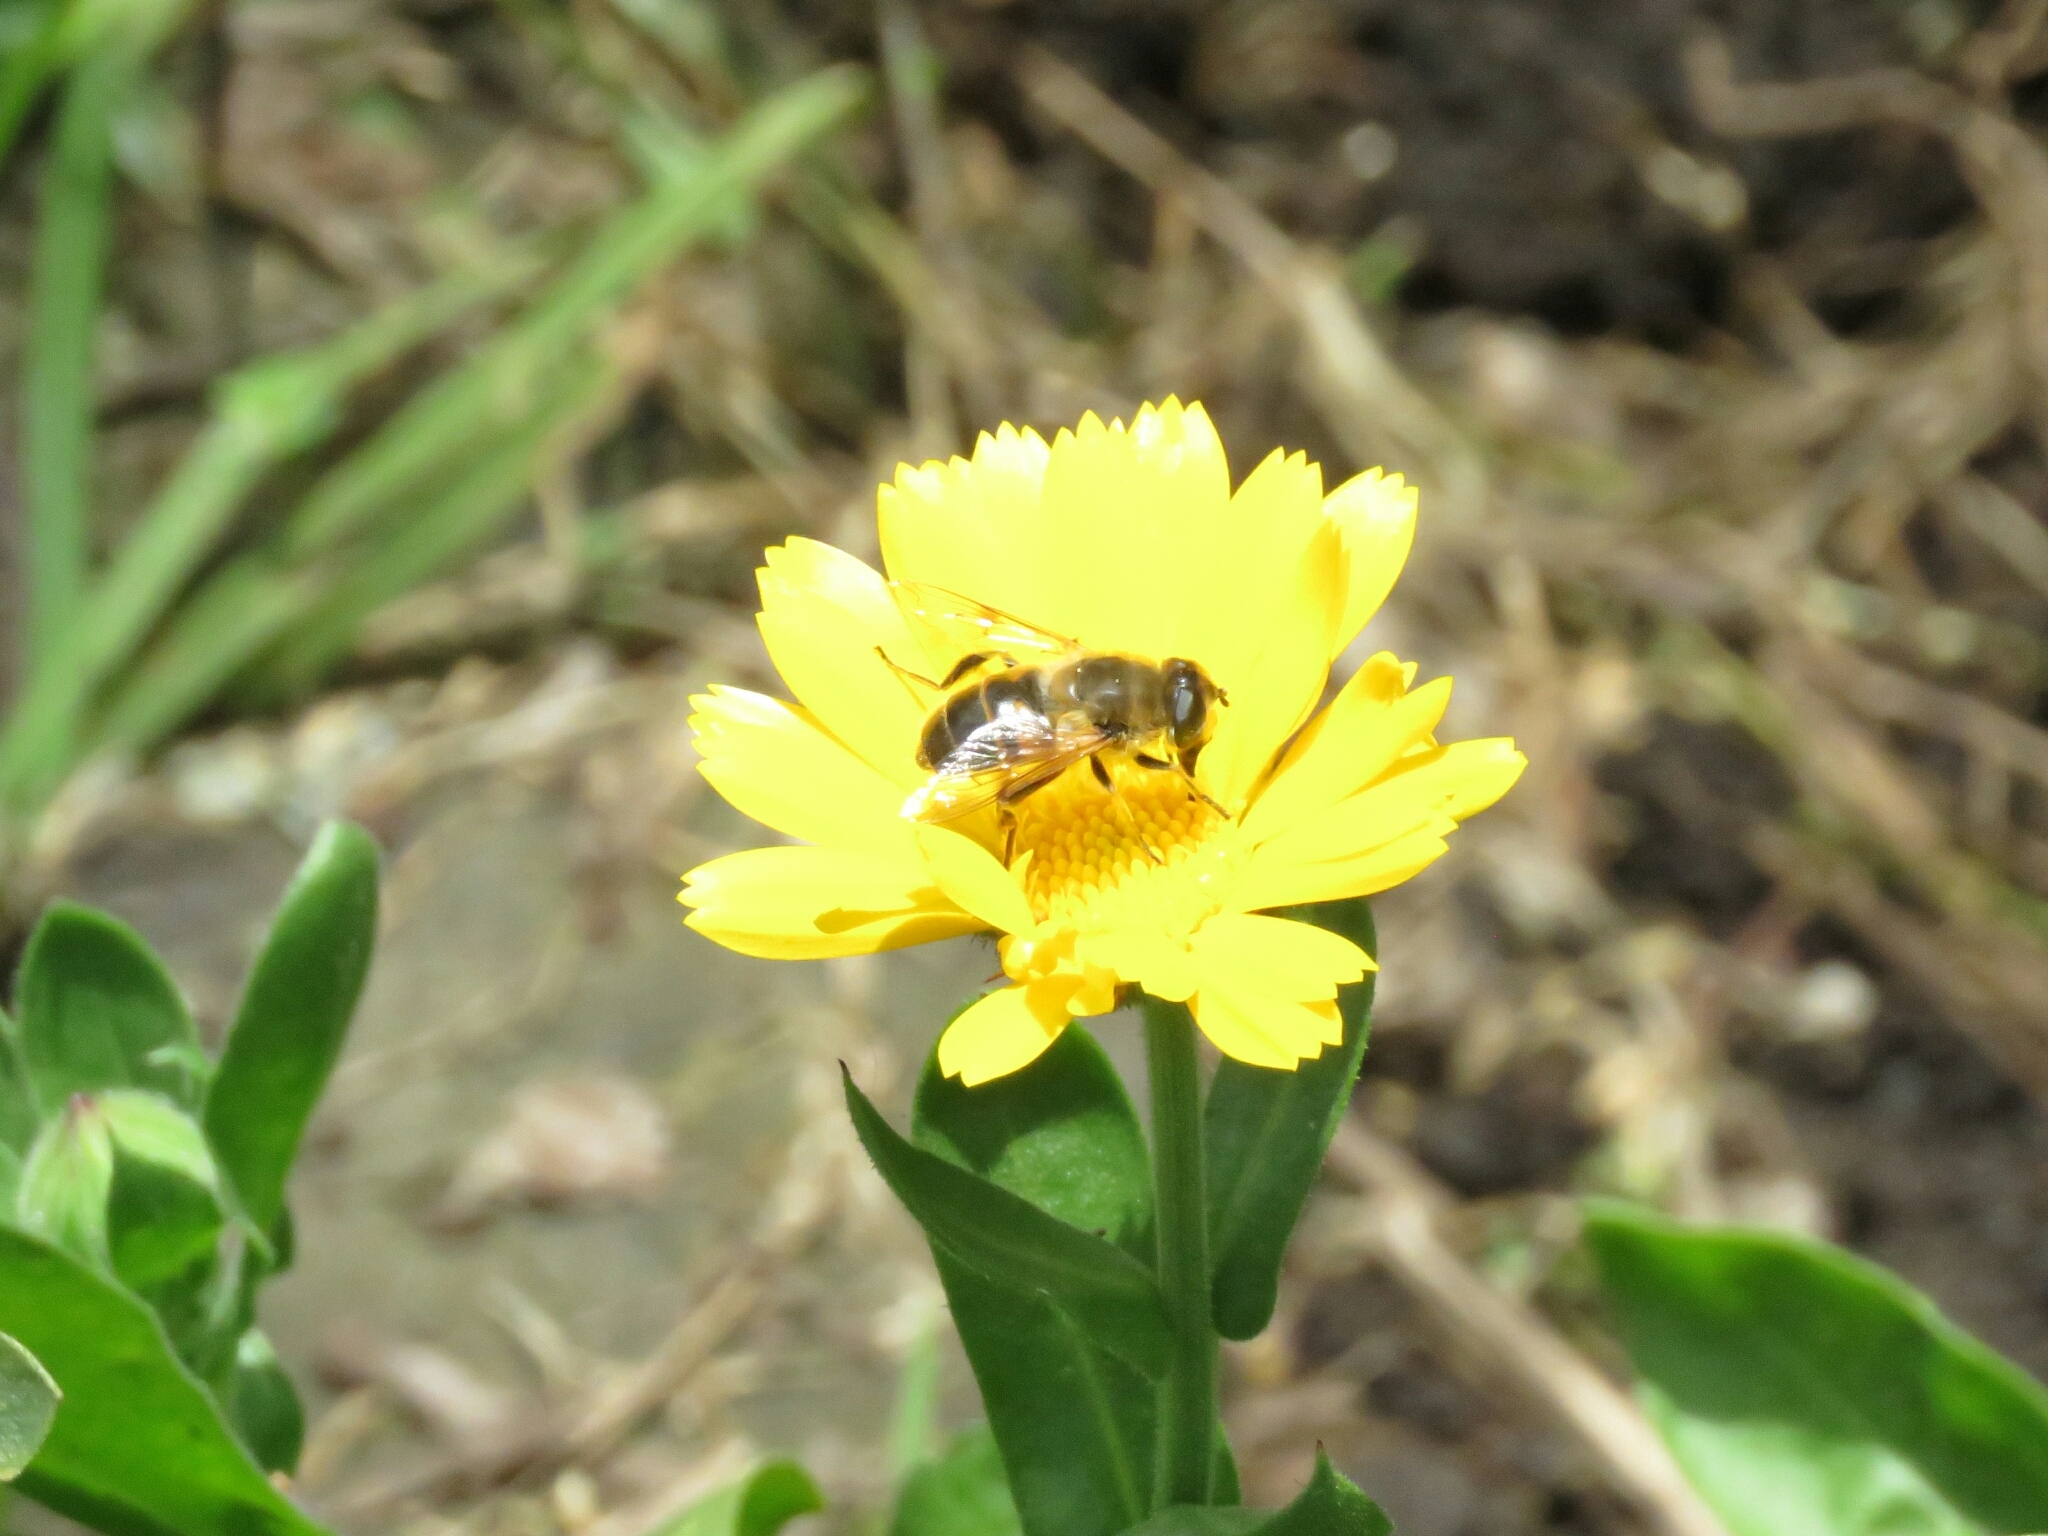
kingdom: Animalia
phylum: Arthropoda
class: Insecta
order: Diptera
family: Syrphidae
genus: Eristalis
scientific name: Eristalis tenax
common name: Drone fly
